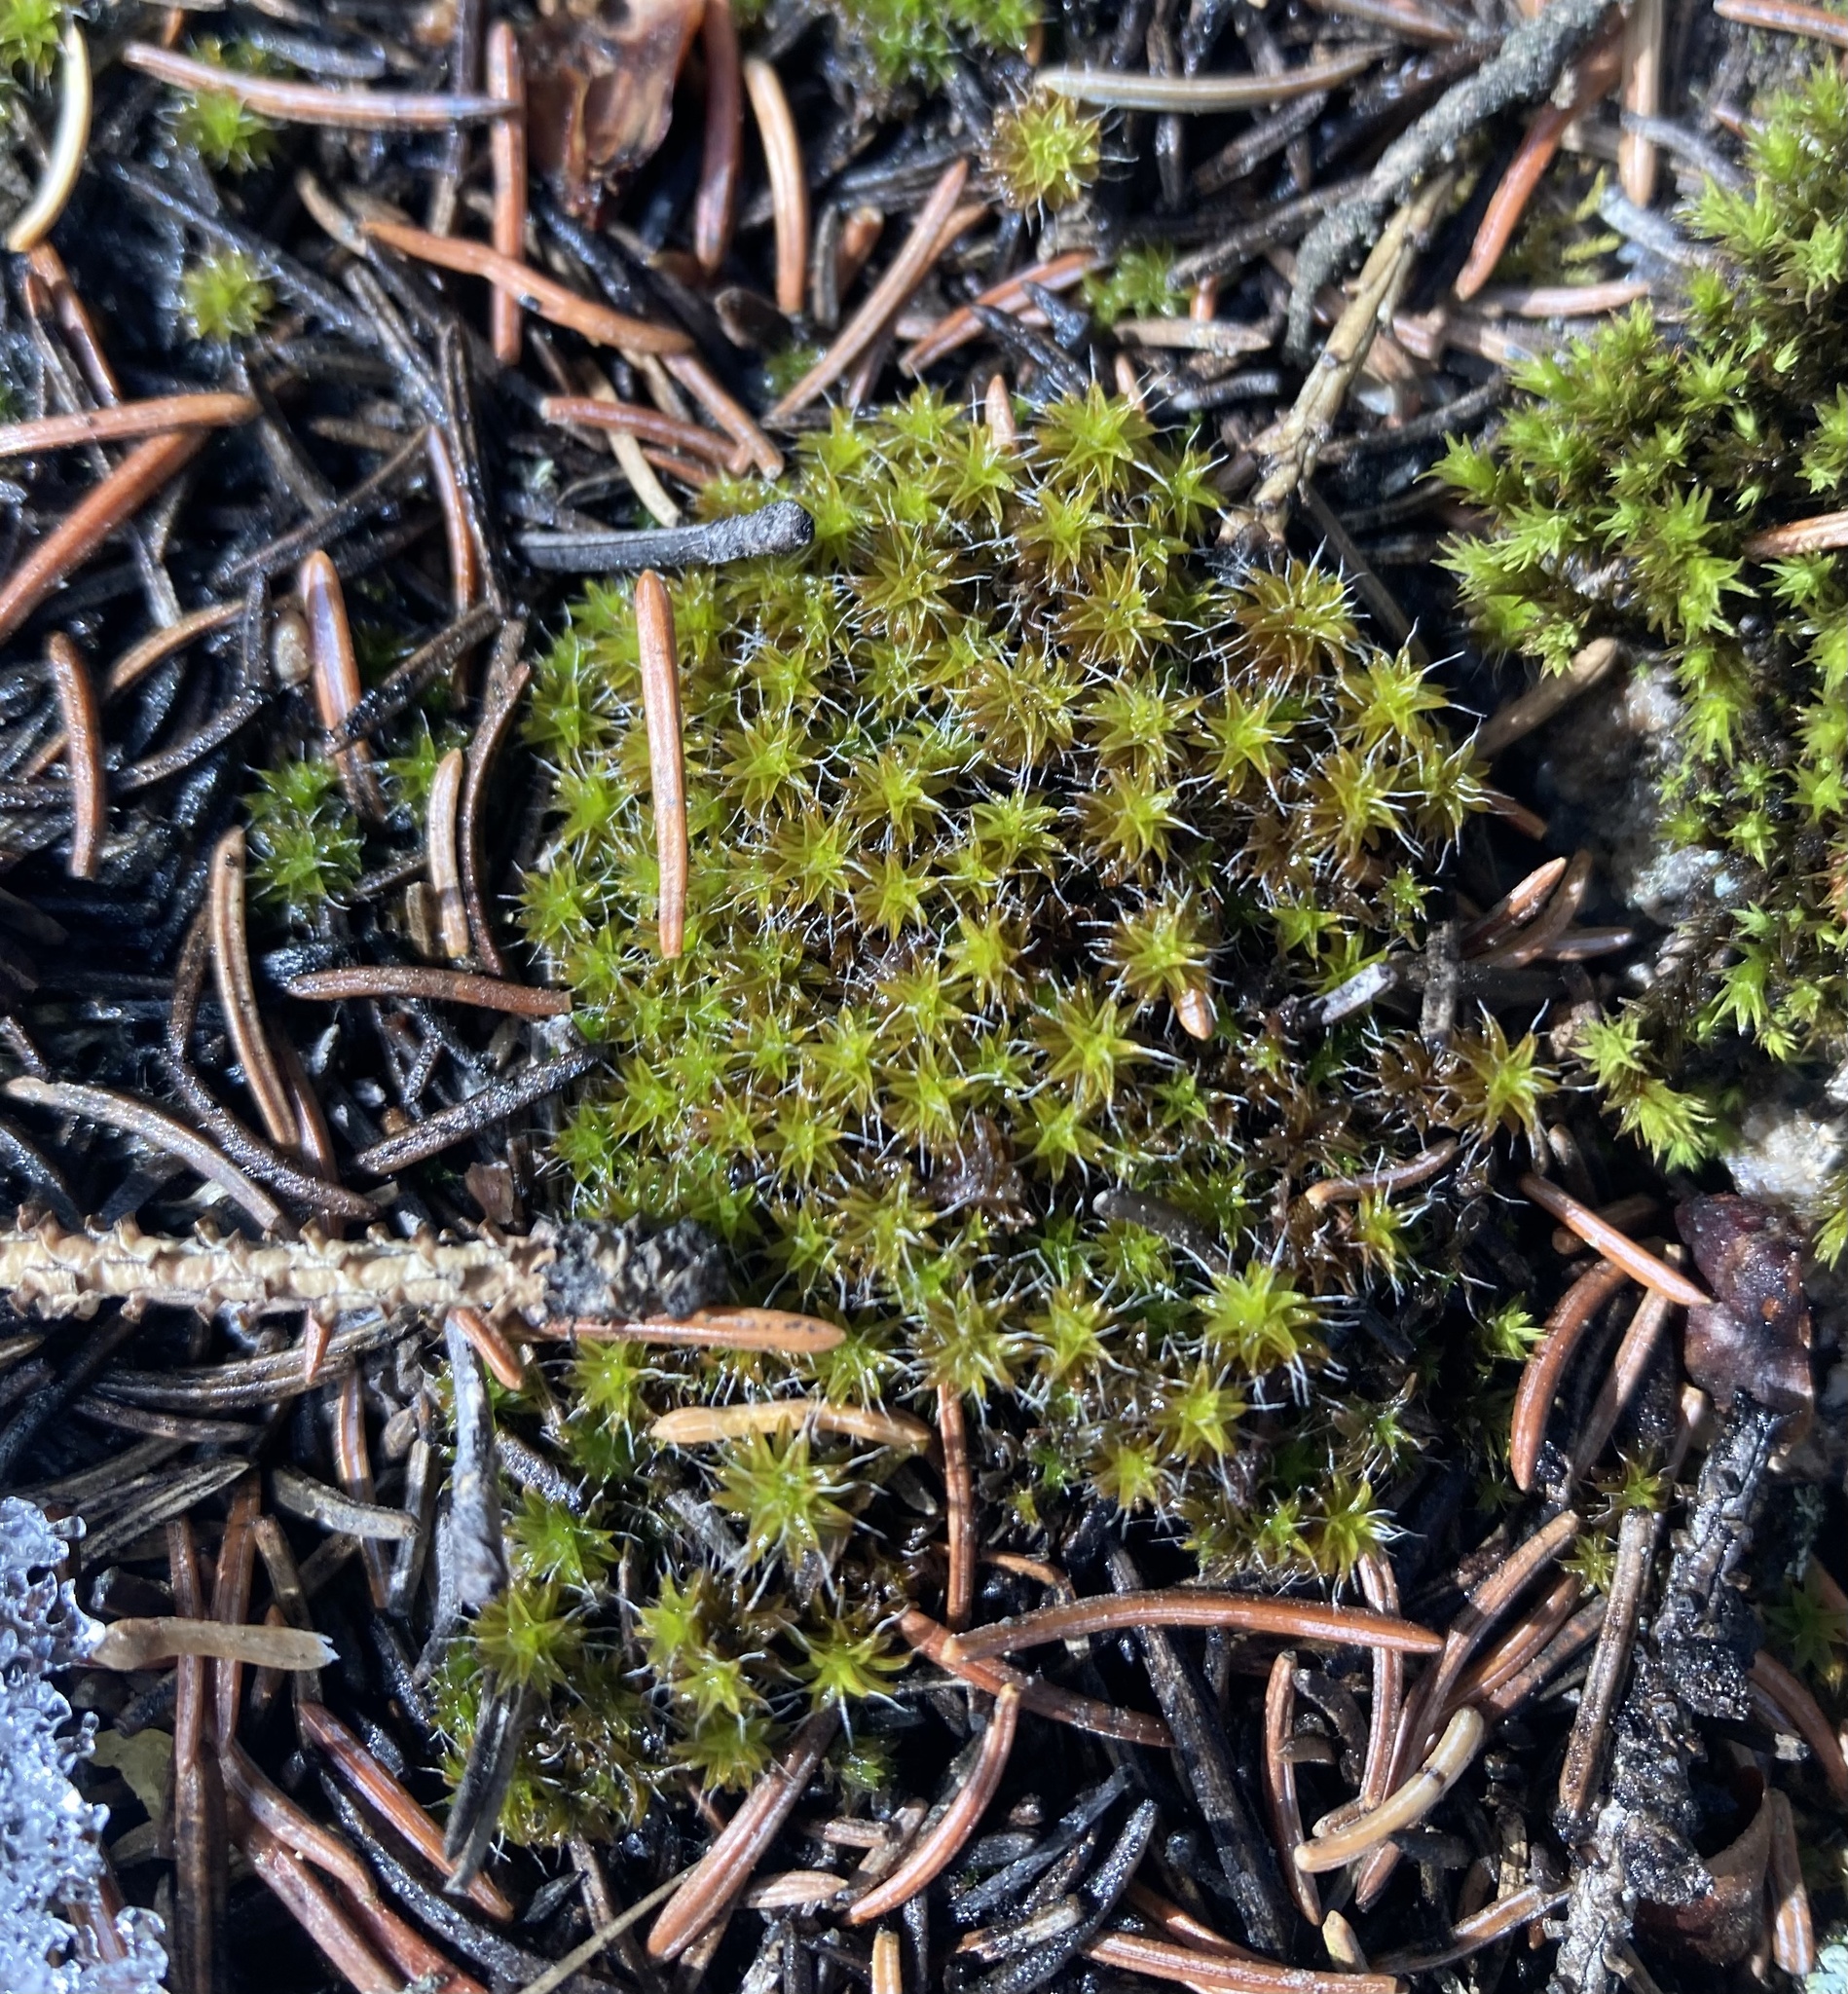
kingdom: Plantae
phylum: Bryophyta
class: Bryopsida
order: Pottiales
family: Pottiaceae
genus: Syntrichia
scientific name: Syntrichia ruralis
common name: Sidewalk screw moss
